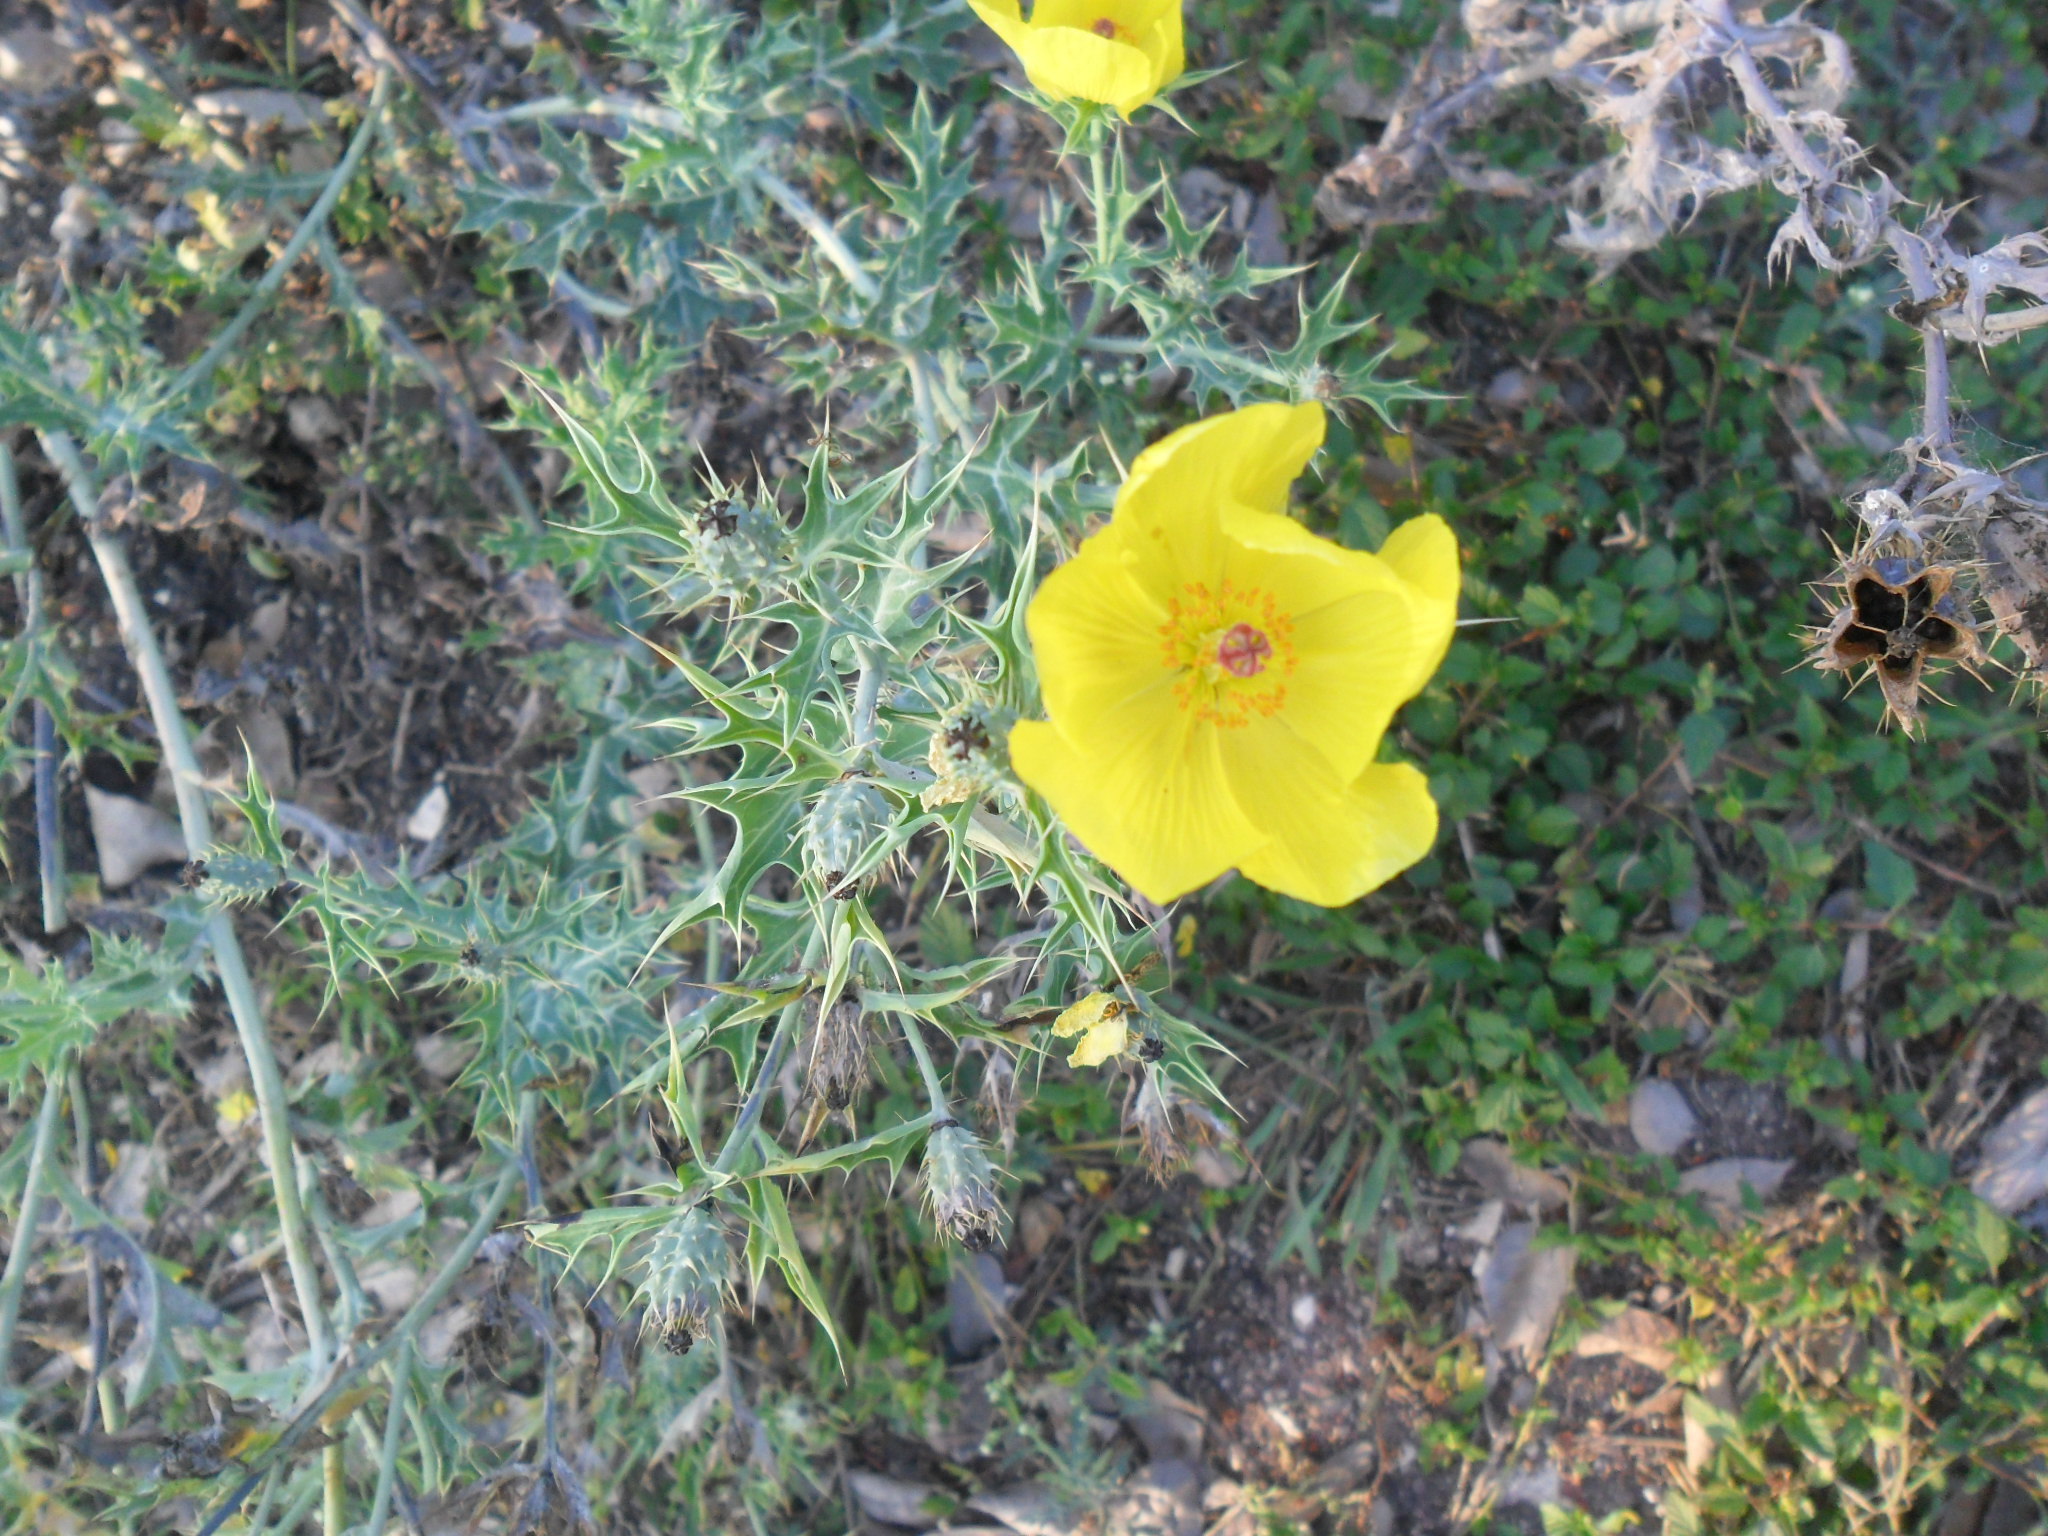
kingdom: Plantae
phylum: Tracheophyta
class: Magnoliopsida
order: Ranunculales
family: Papaveraceae
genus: Argemone
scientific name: Argemone mexicana
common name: Mexican poppy
